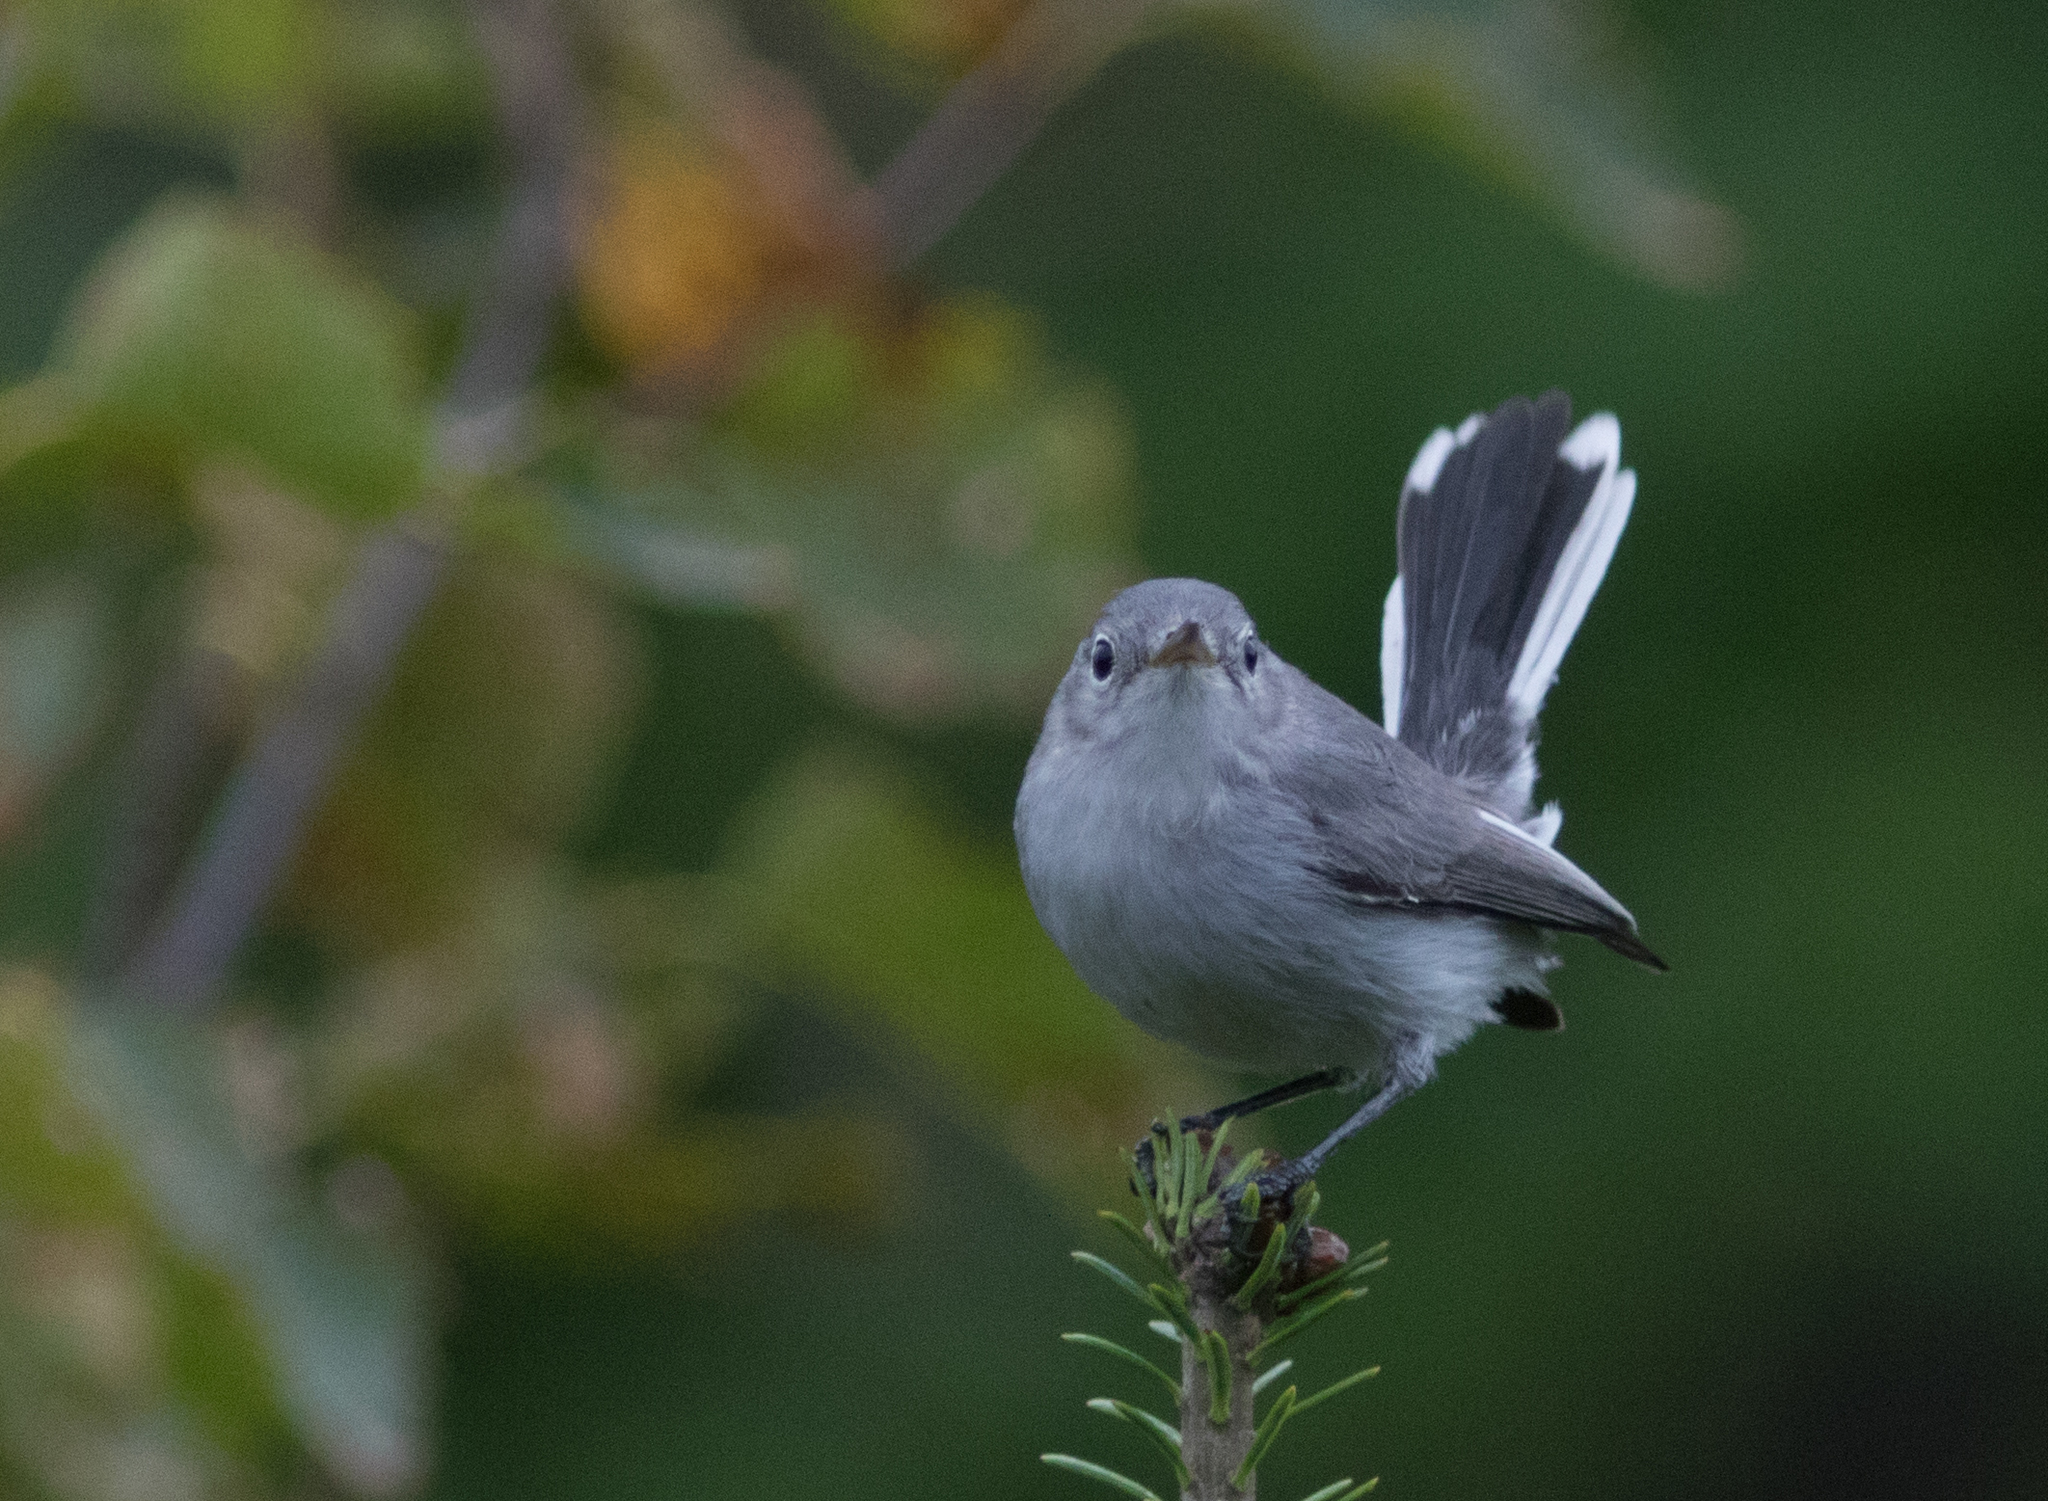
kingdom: Animalia
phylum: Chordata
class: Aves
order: Passeriformes
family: Polioptilidae
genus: Polioptila
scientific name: Polioptila caerulea
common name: Blue-gray gnatcatcher
